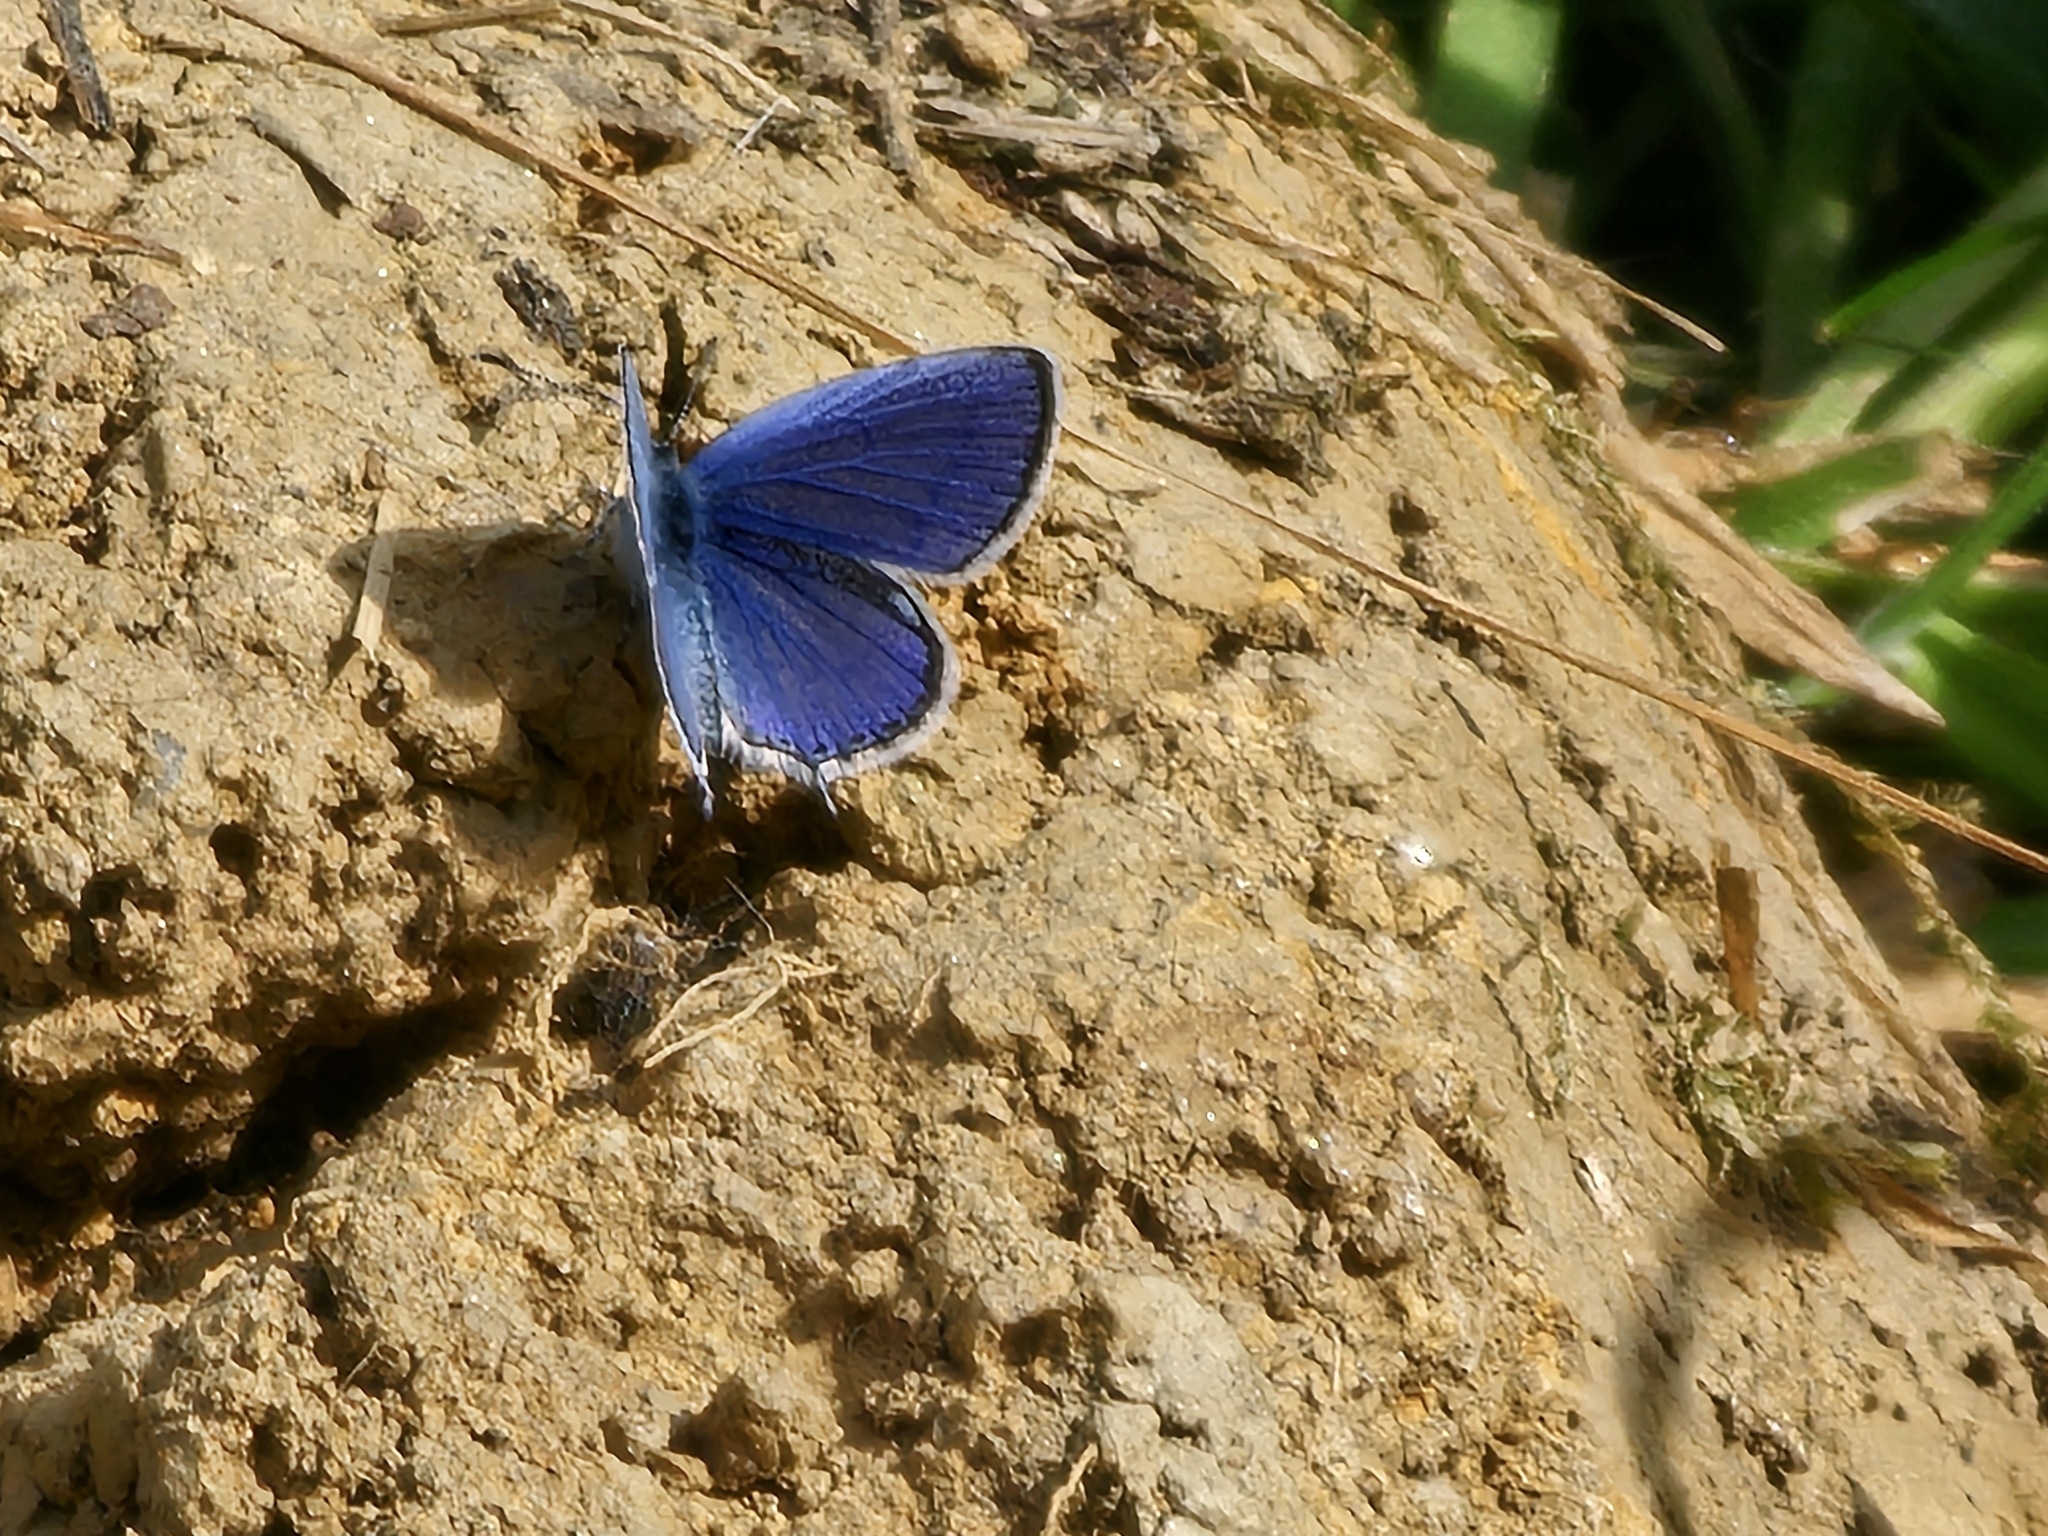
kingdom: Animalia
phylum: Arthropoda
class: Insecta
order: Lepidoptera
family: Lycaenidae
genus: Elkalyce
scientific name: Elkalyce argiades
